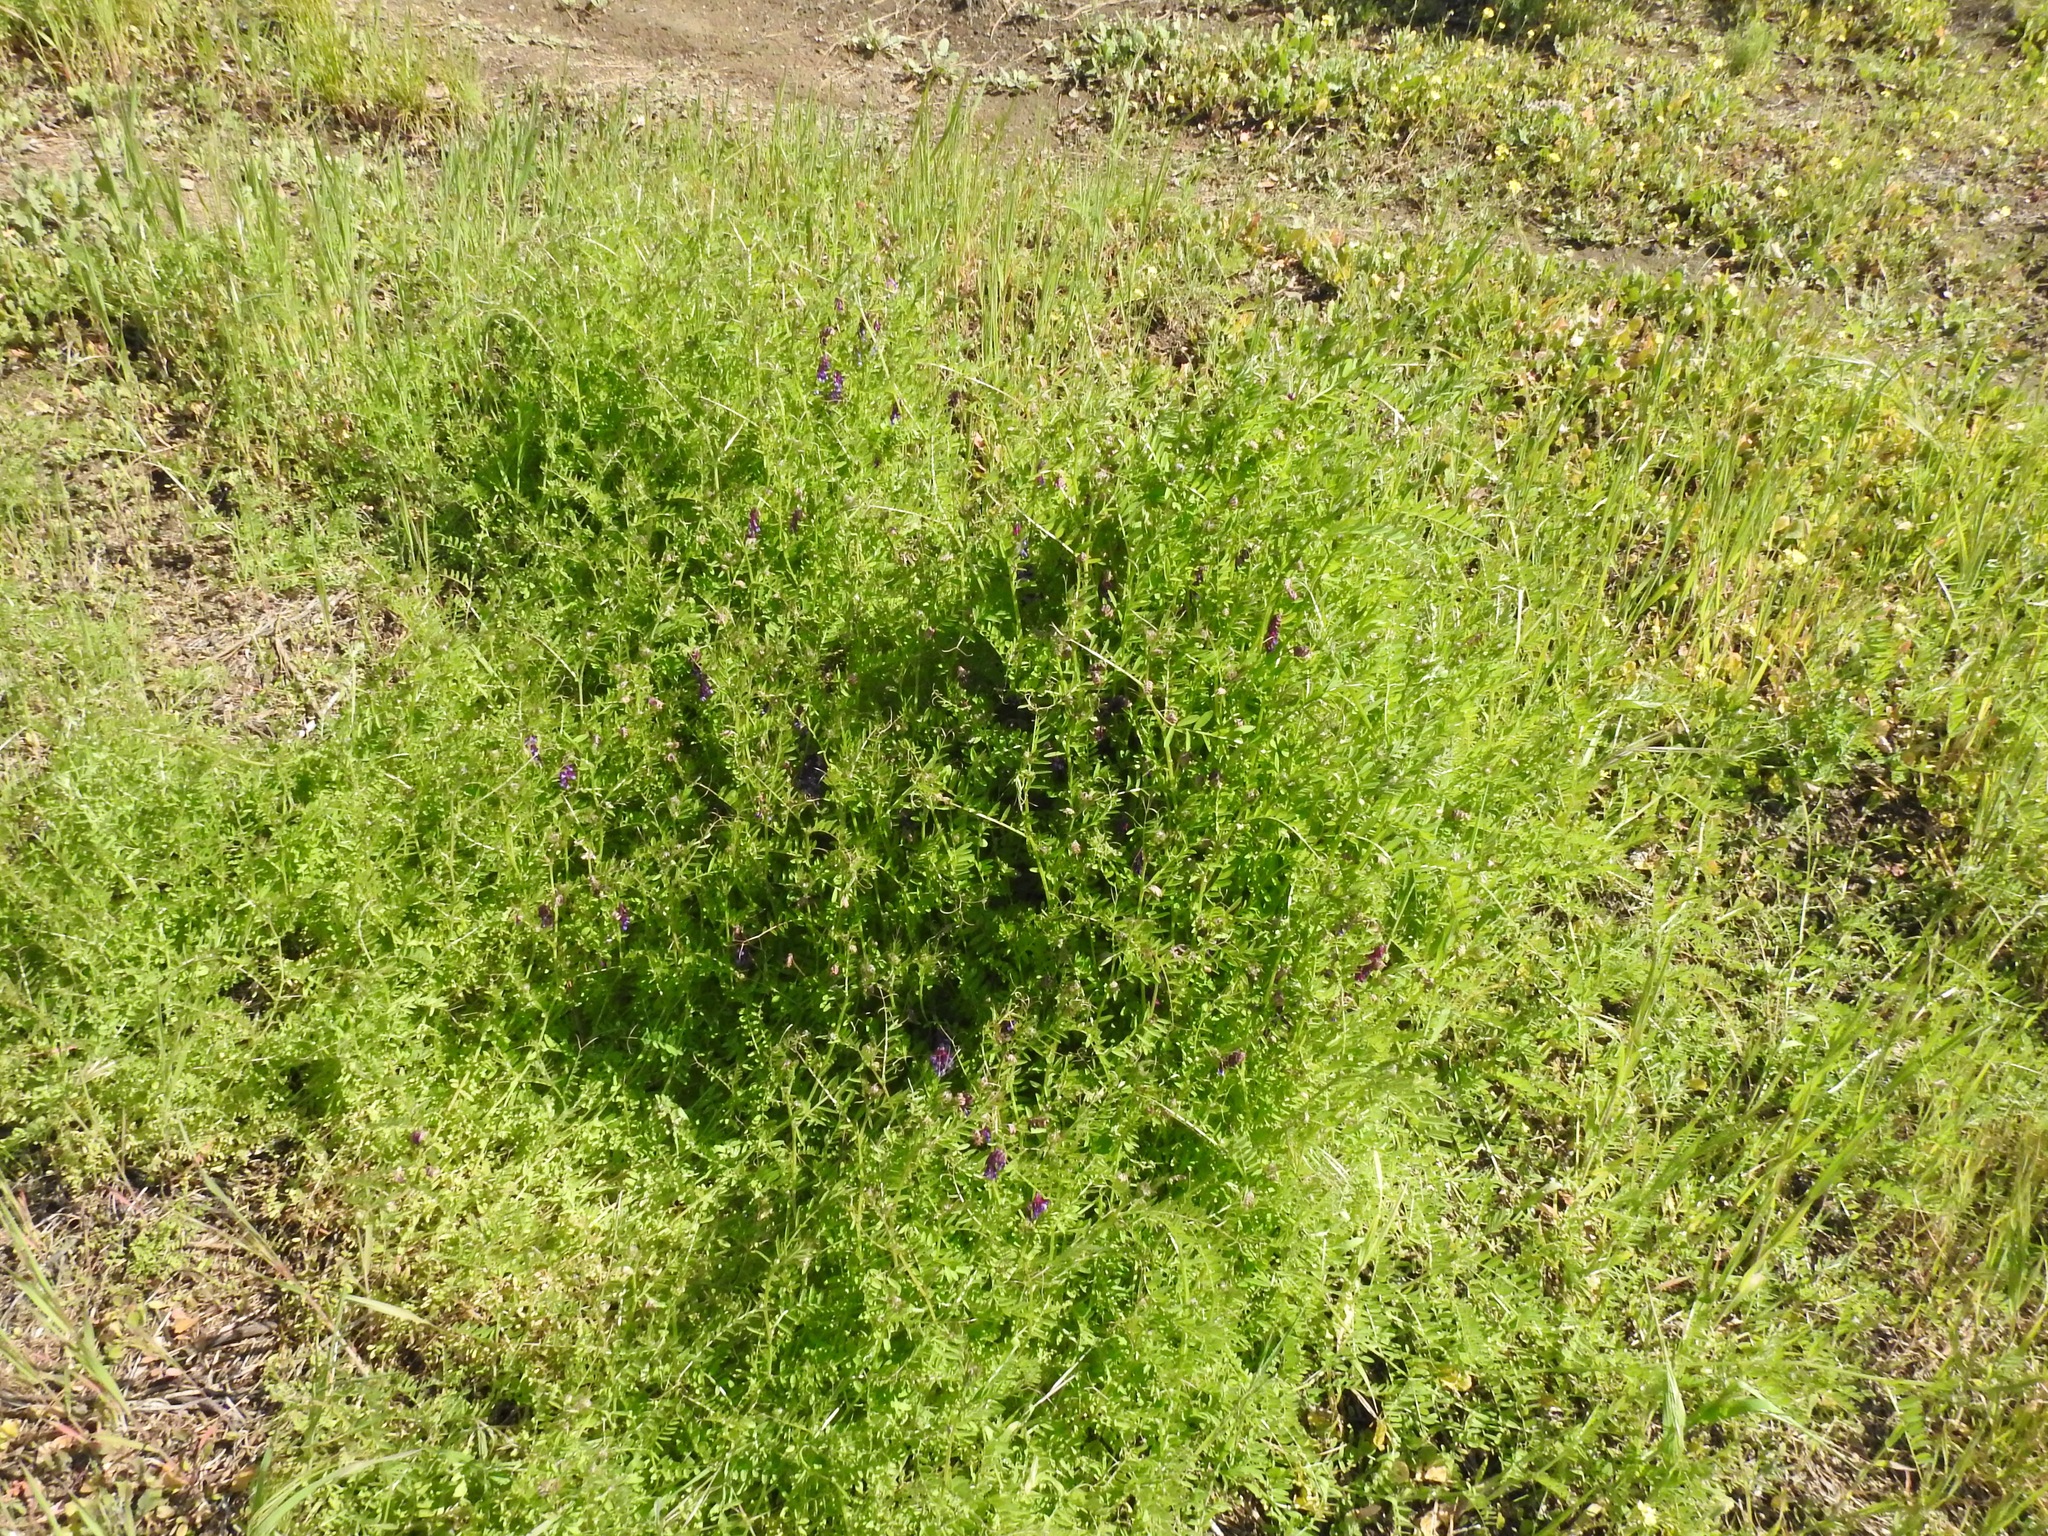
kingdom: Plantae
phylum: Tracheophyta
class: Magnoliopsida
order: Fabales
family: Fabaceae
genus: Vicia
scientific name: Vicia villosa
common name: Fodder vetch
